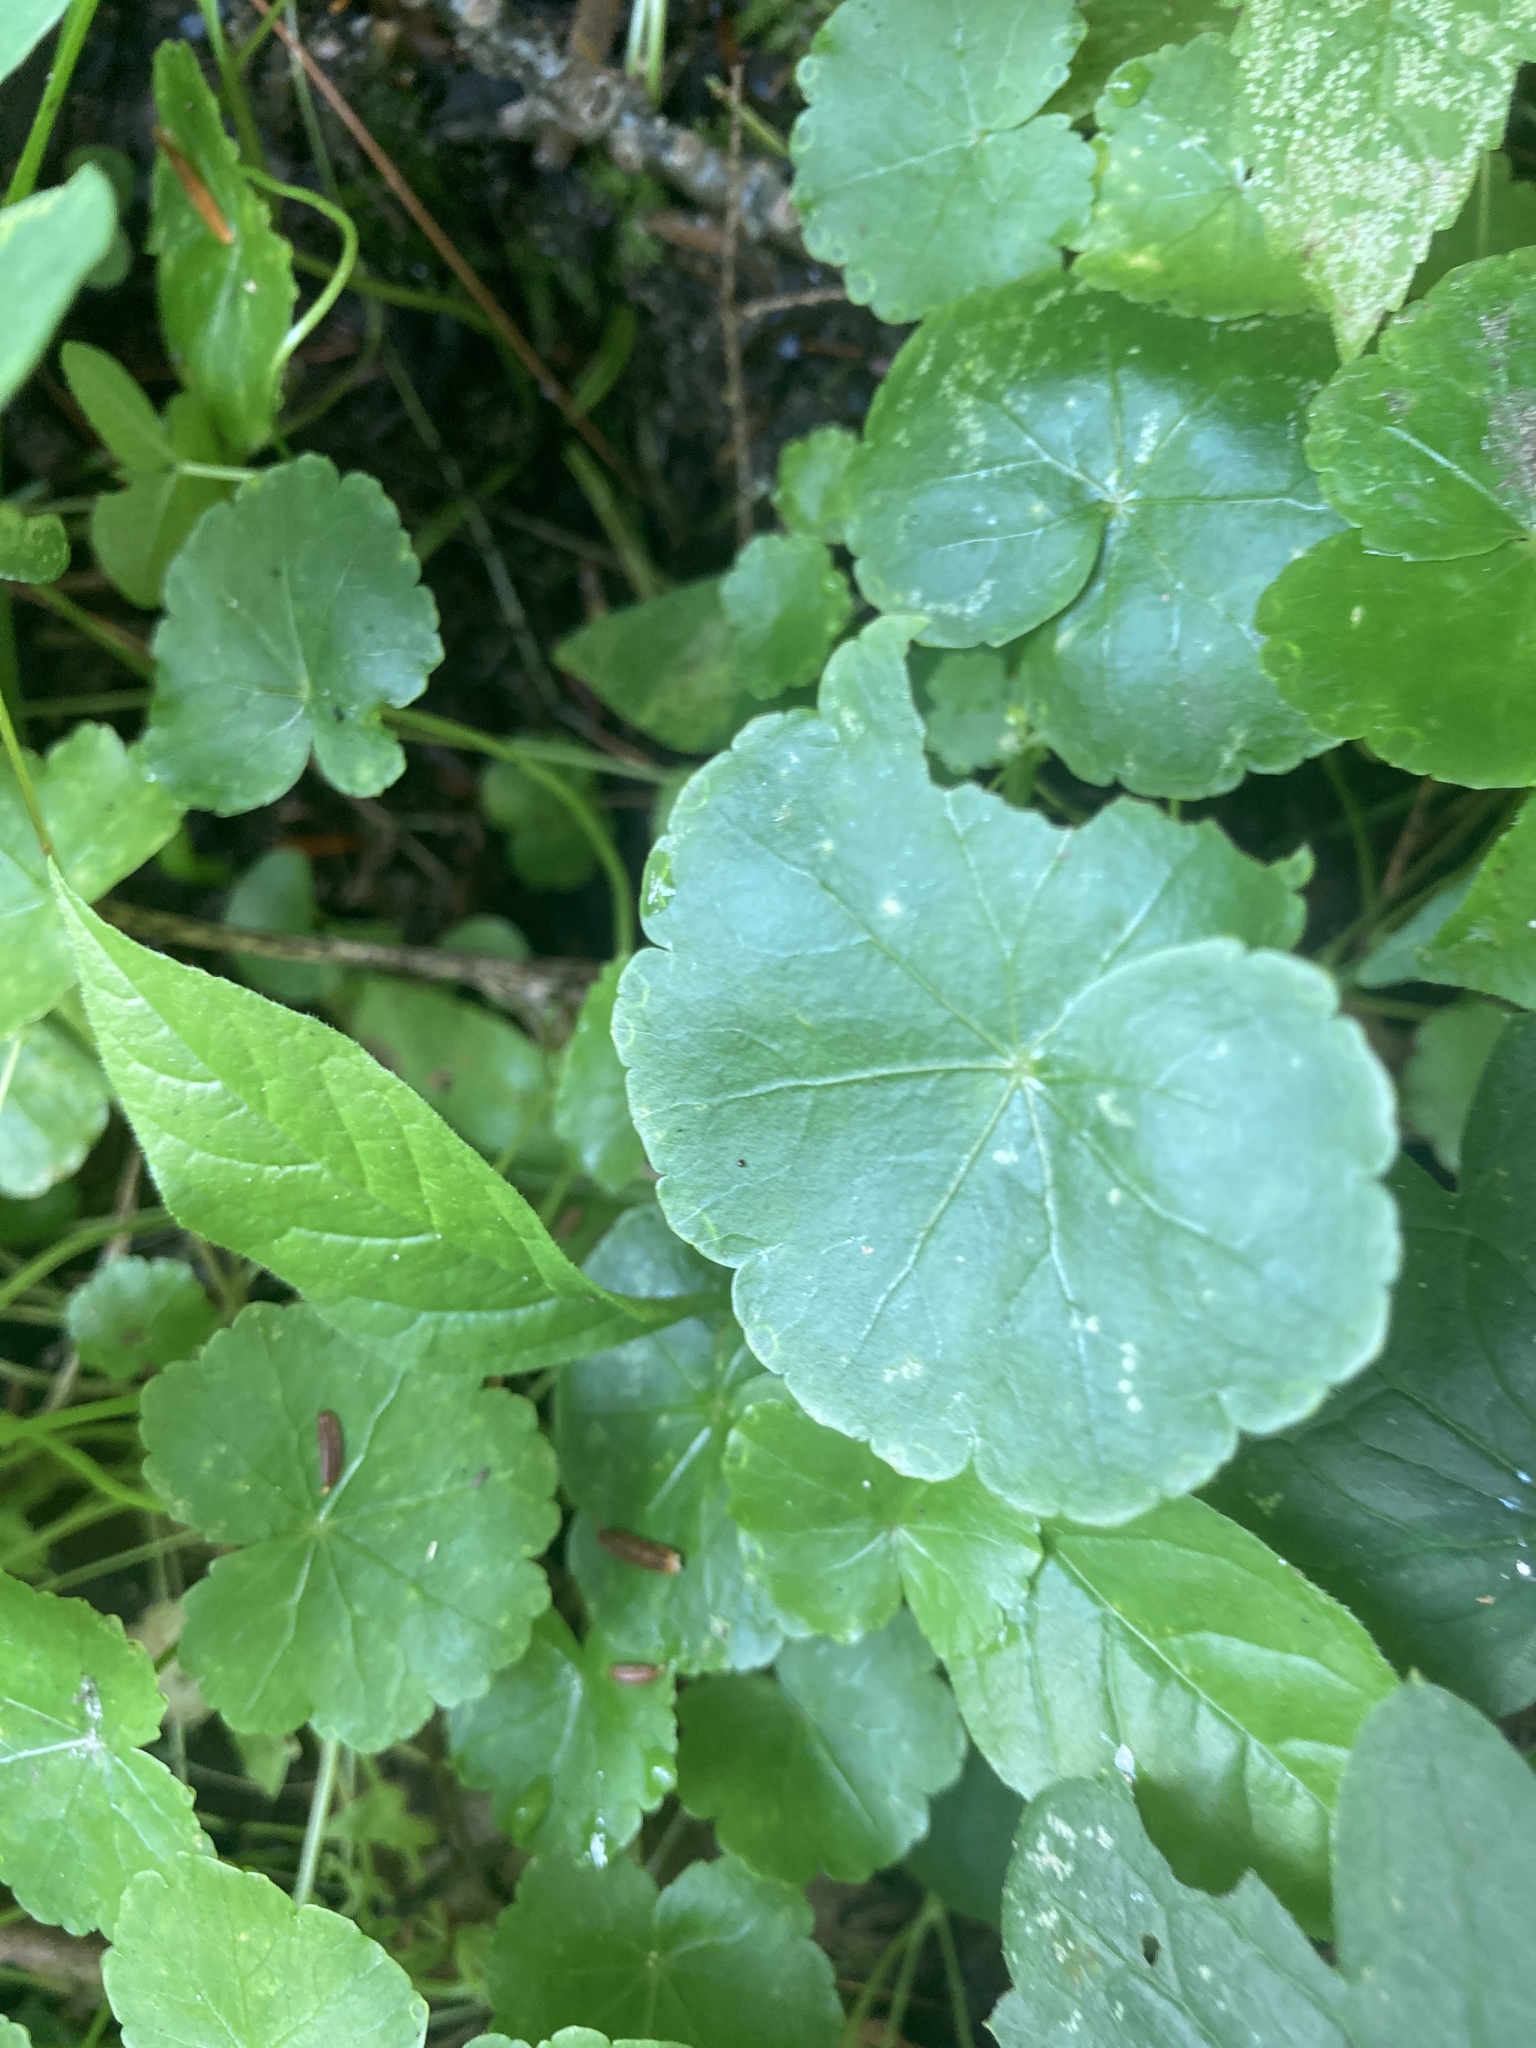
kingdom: Plantae
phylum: Tracheophyta
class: Magnoliopsida
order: Apiales
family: Araliaceae
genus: Hydrocotyle
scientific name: Hydrocotyle americana
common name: American water-pennywort
